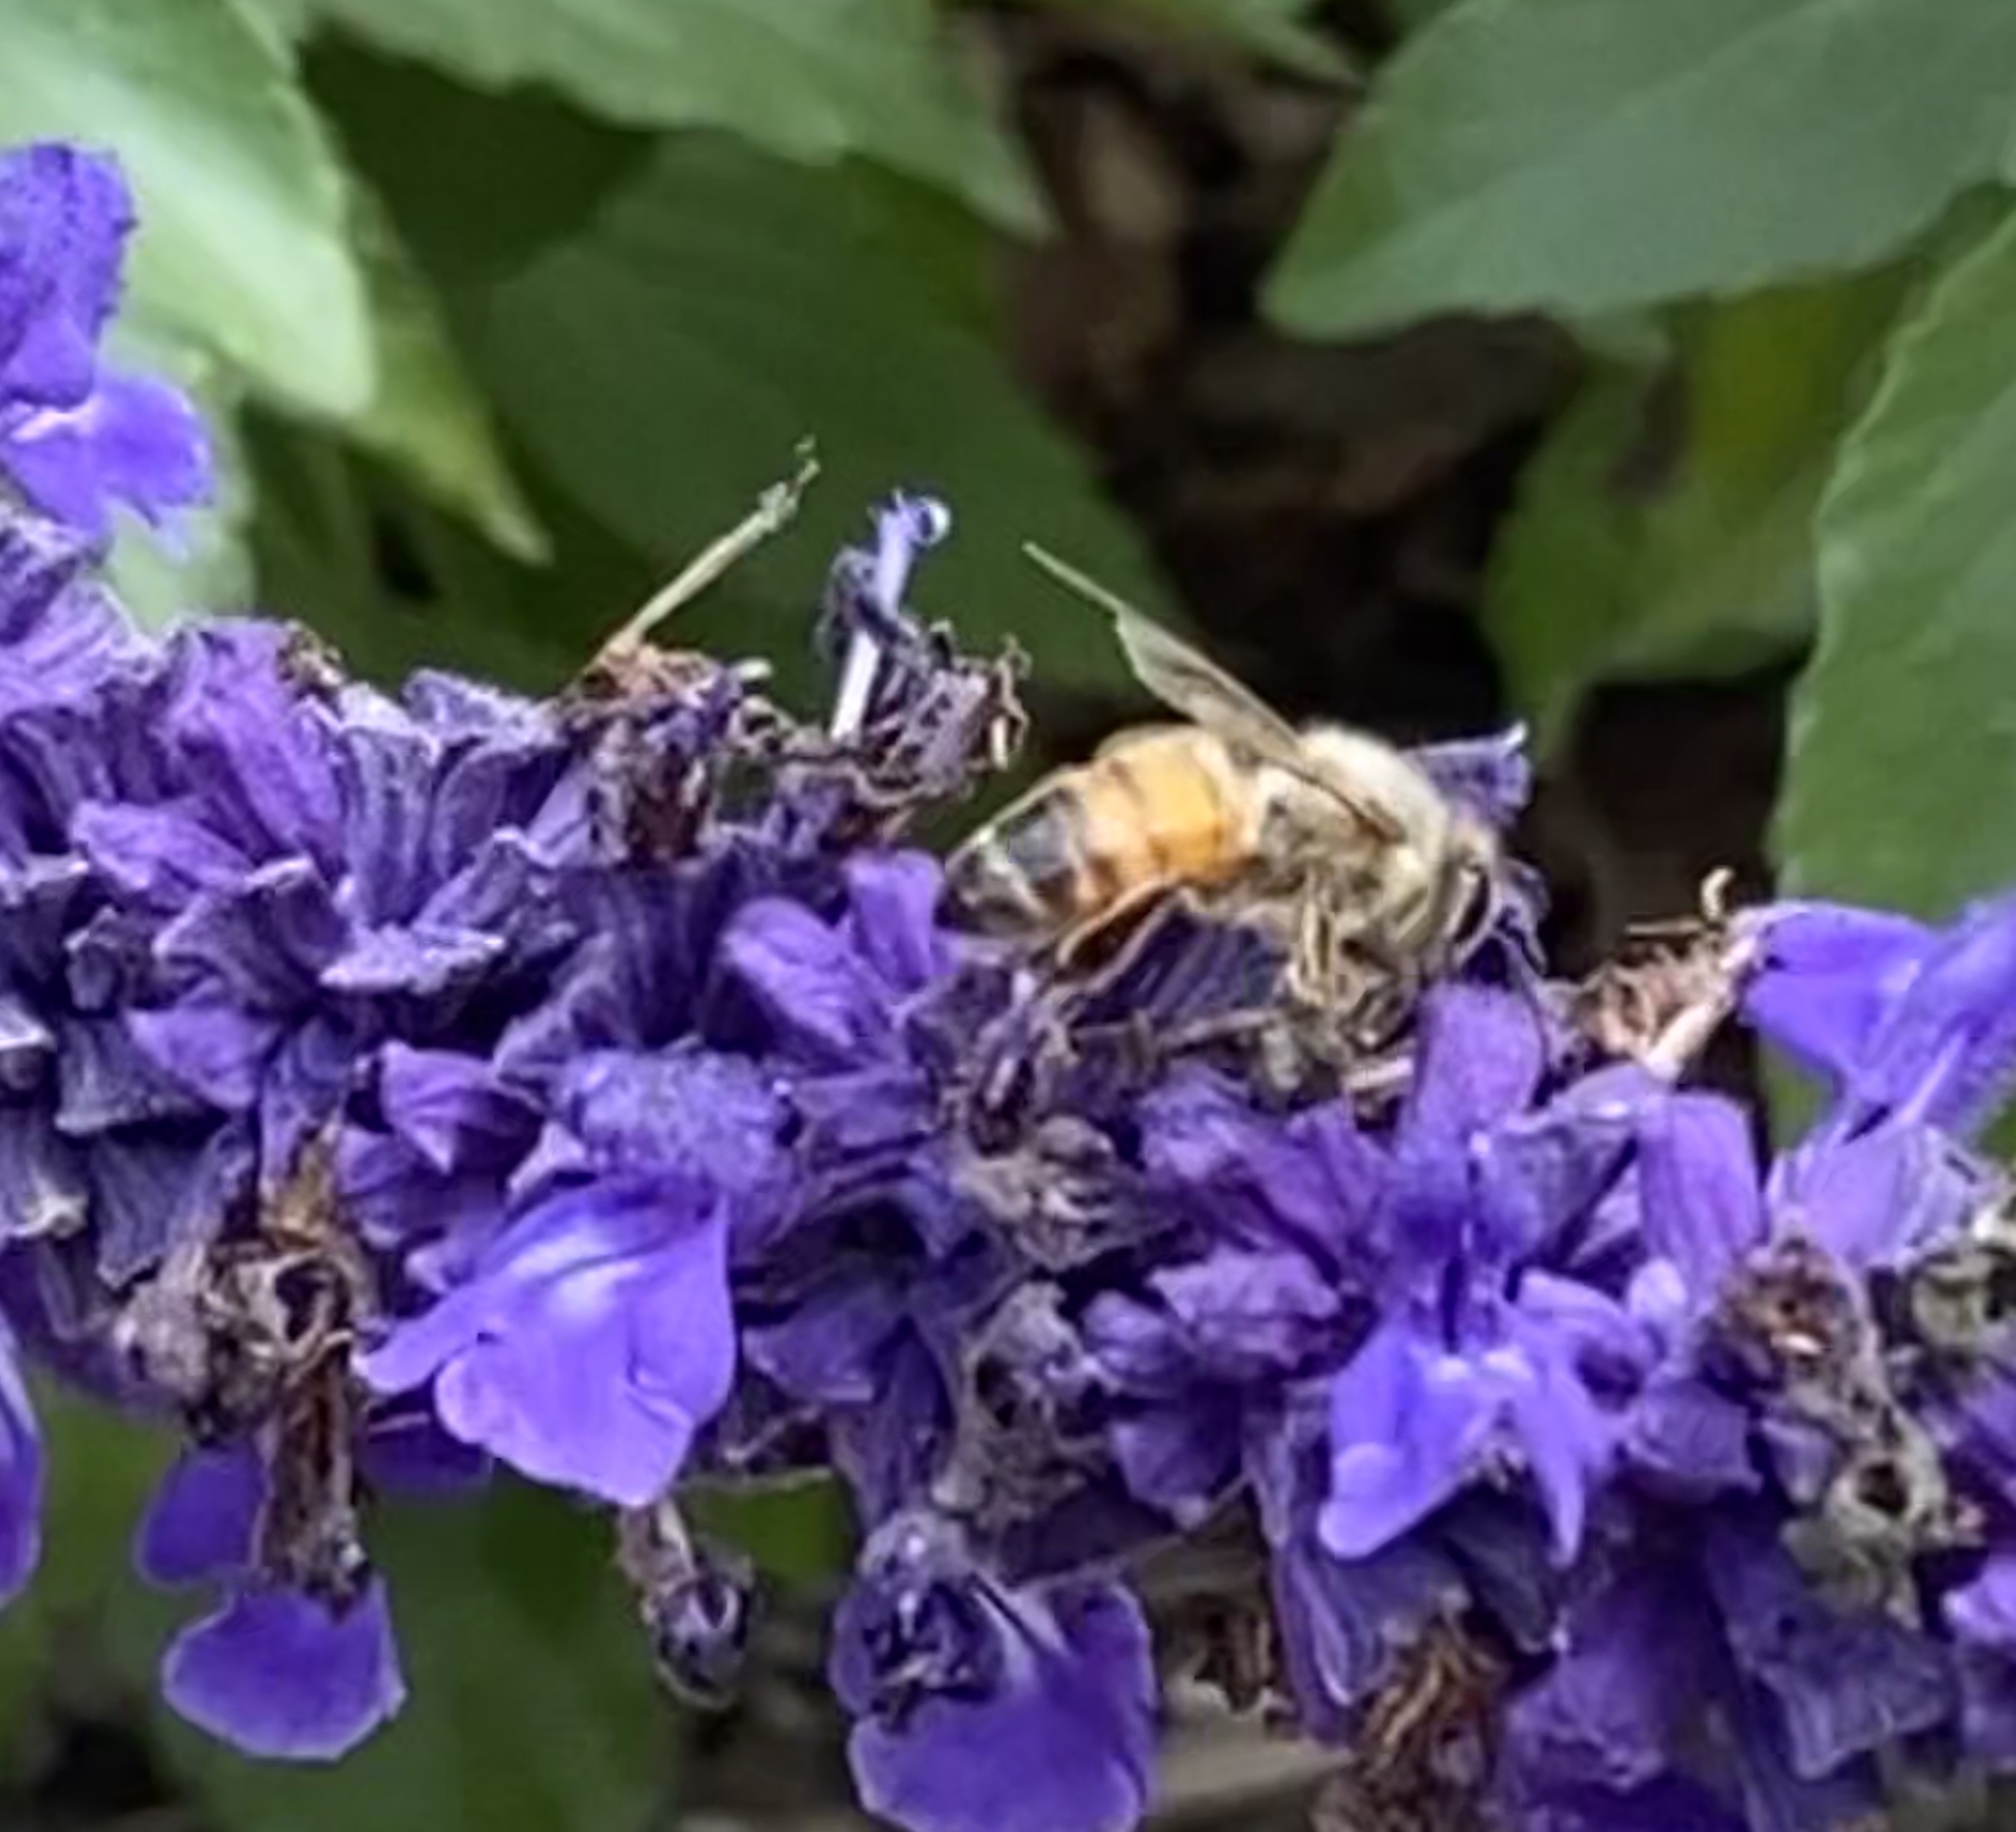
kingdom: Animalia
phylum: Arthropoda
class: Insecta
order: Hymenoptera
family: Apidae
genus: Apis
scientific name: Apis mellifera
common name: Honey bee
